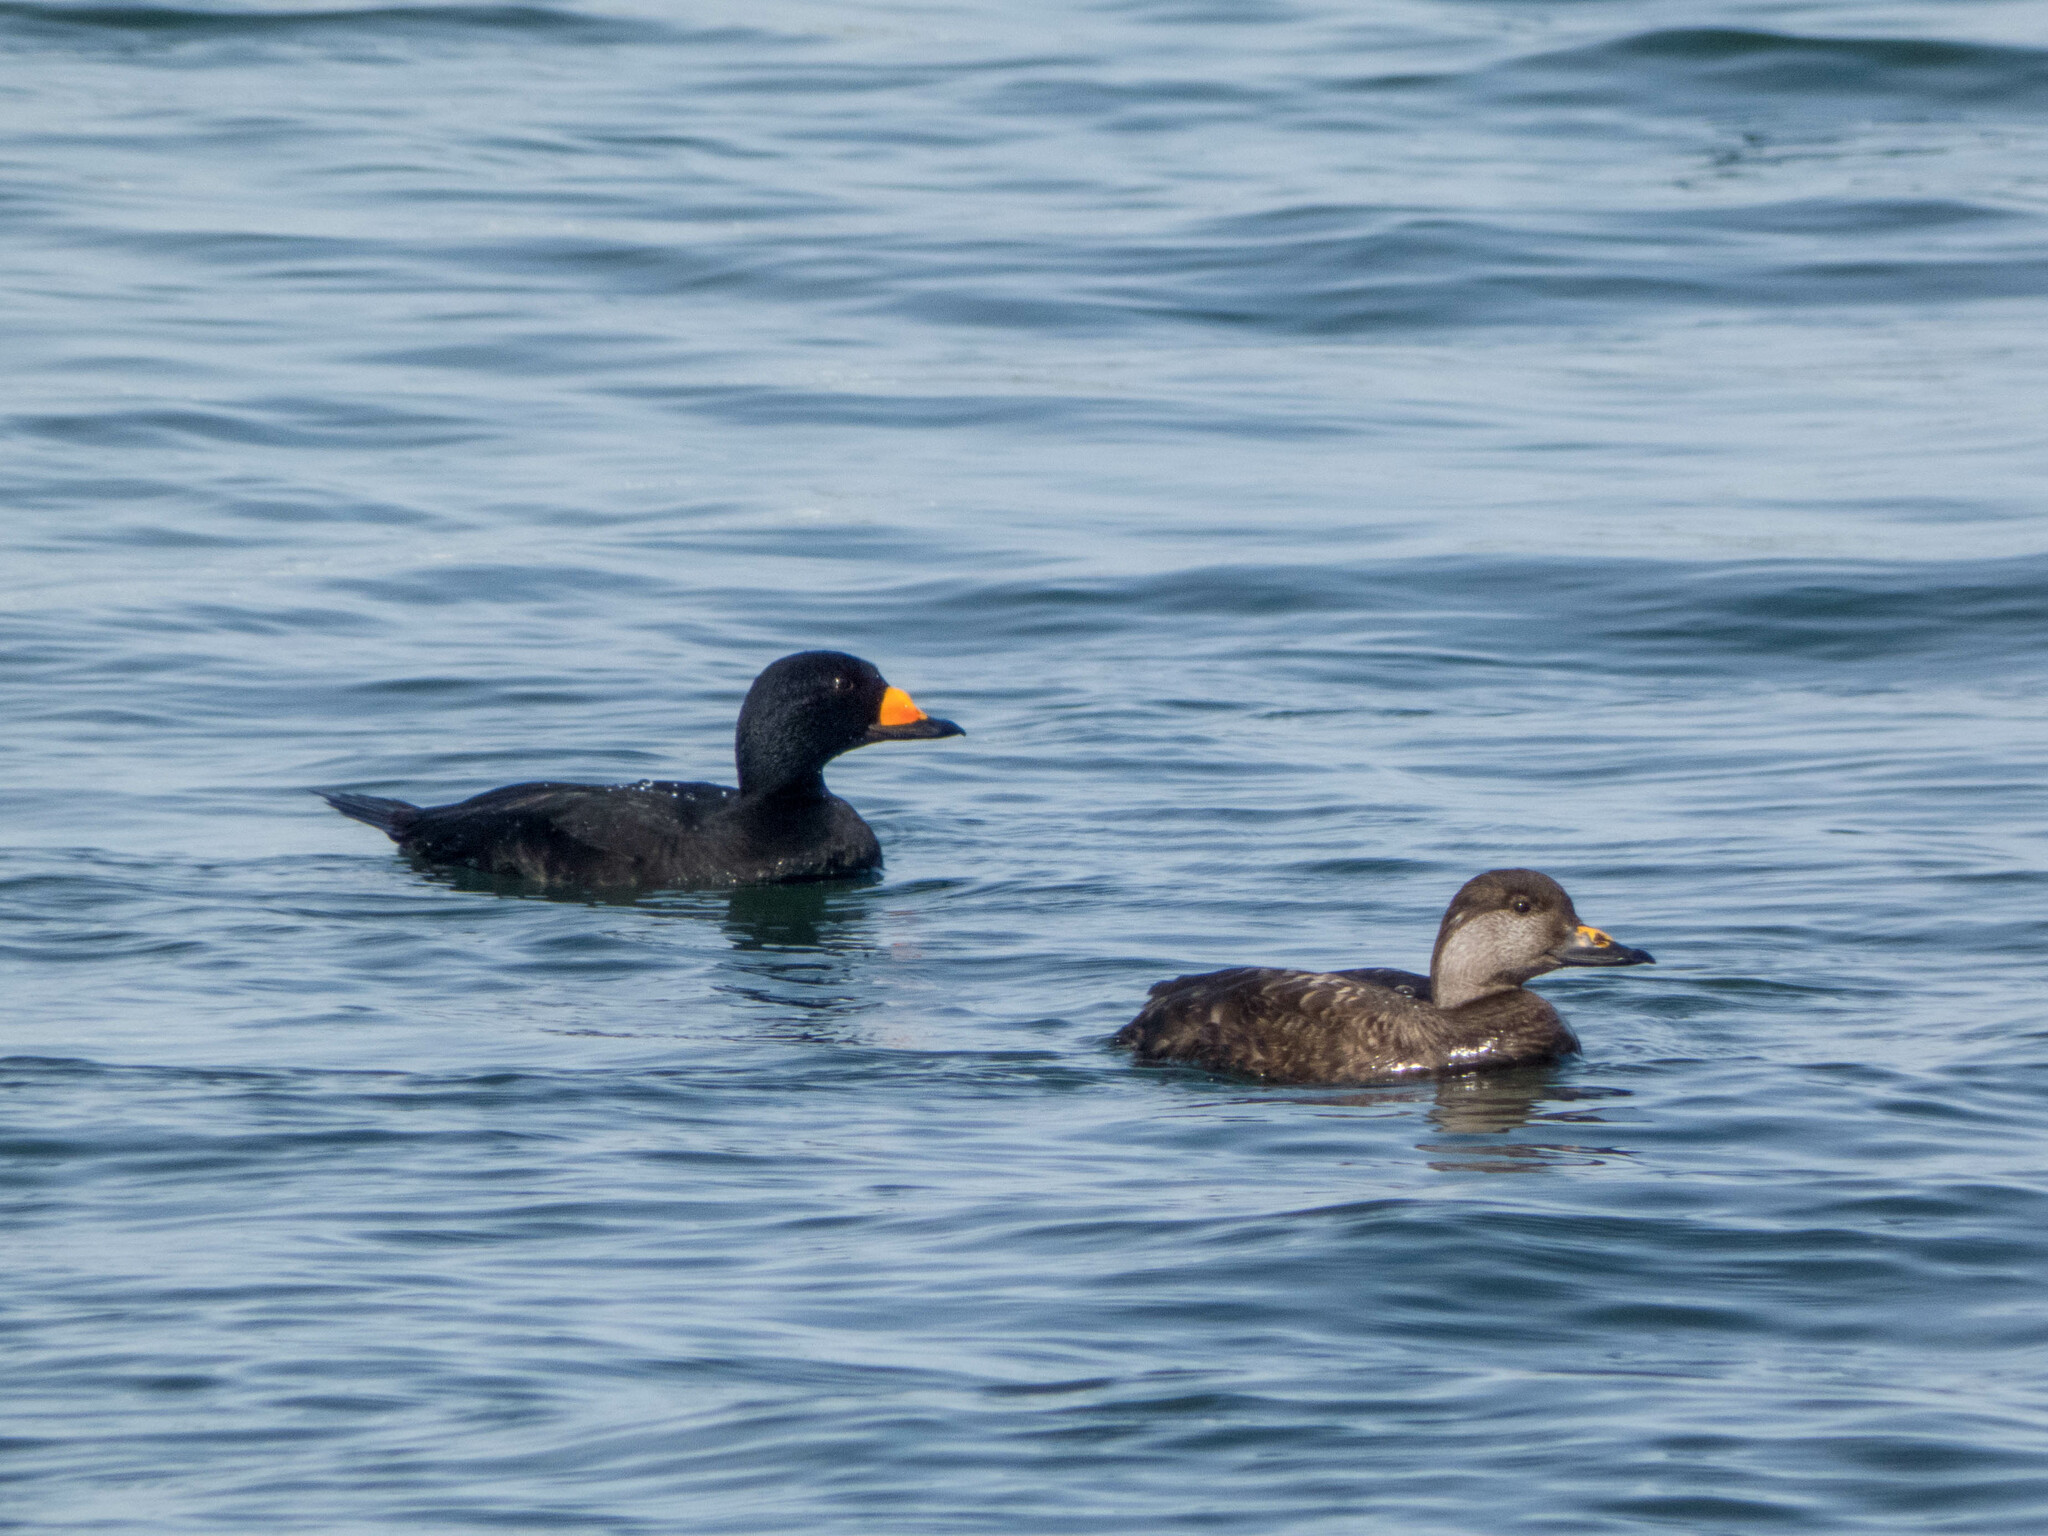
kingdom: Animalia
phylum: Chordata
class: Aves
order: Anseriformes
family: Anatidae
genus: Melanitta
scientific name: Melanitta americana
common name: Black scoter
